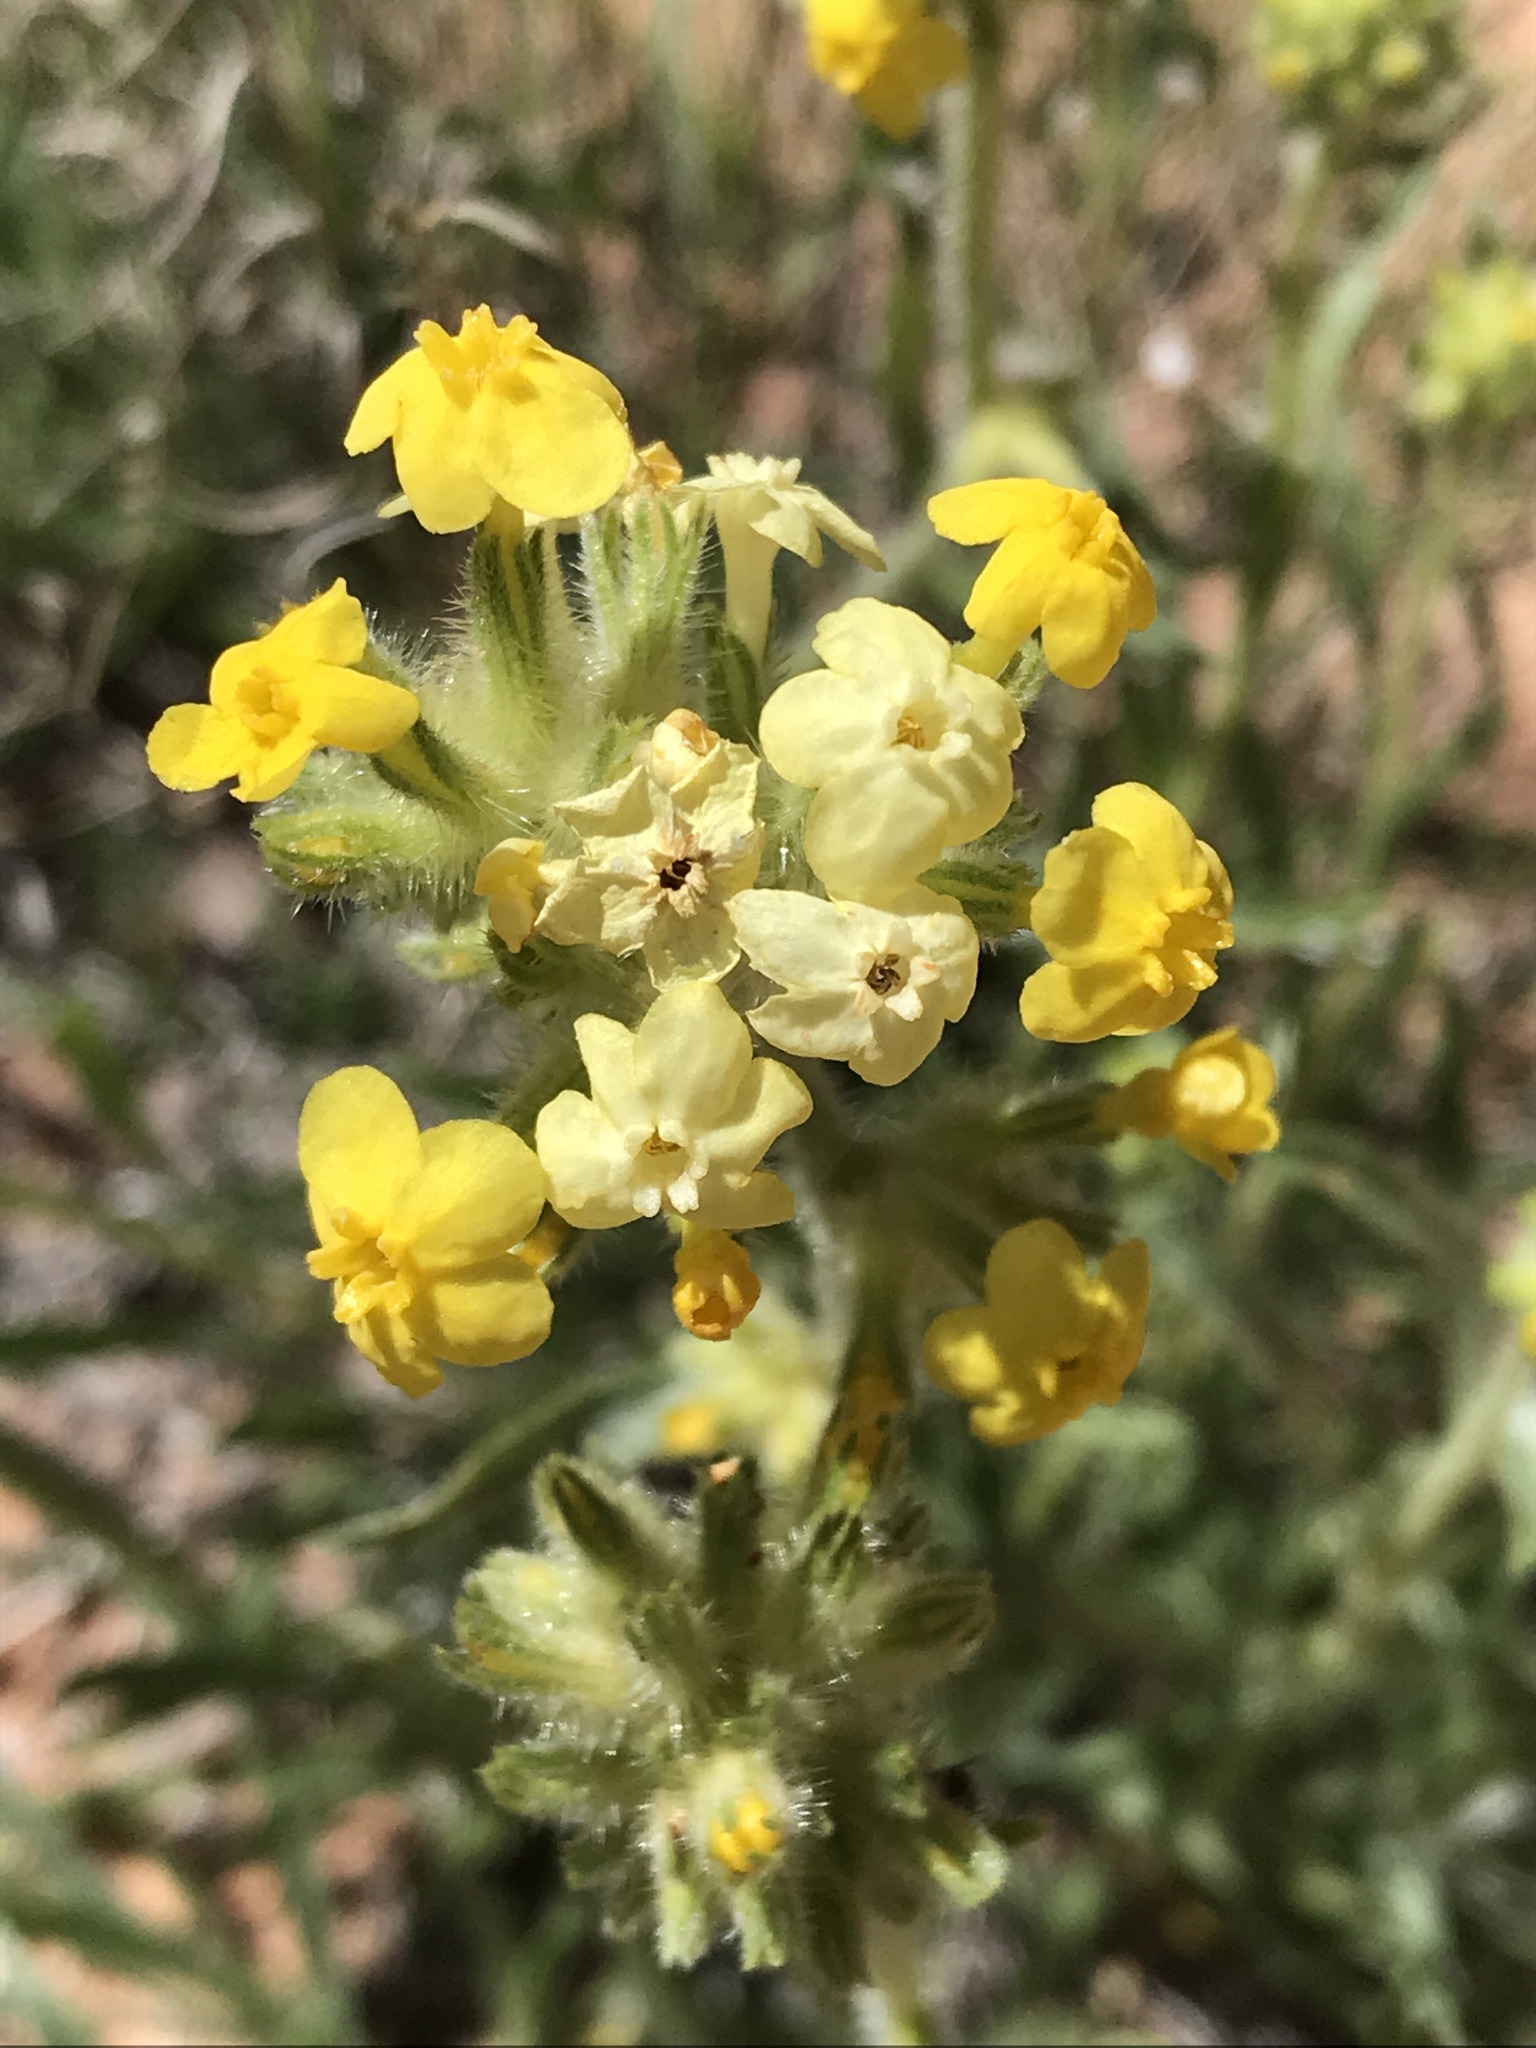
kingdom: Plantae
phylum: Tracheophyta
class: Magnoliopsida
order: Boraginales
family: Boraginaceae
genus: Oreocarya
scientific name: Oreocarya flava
